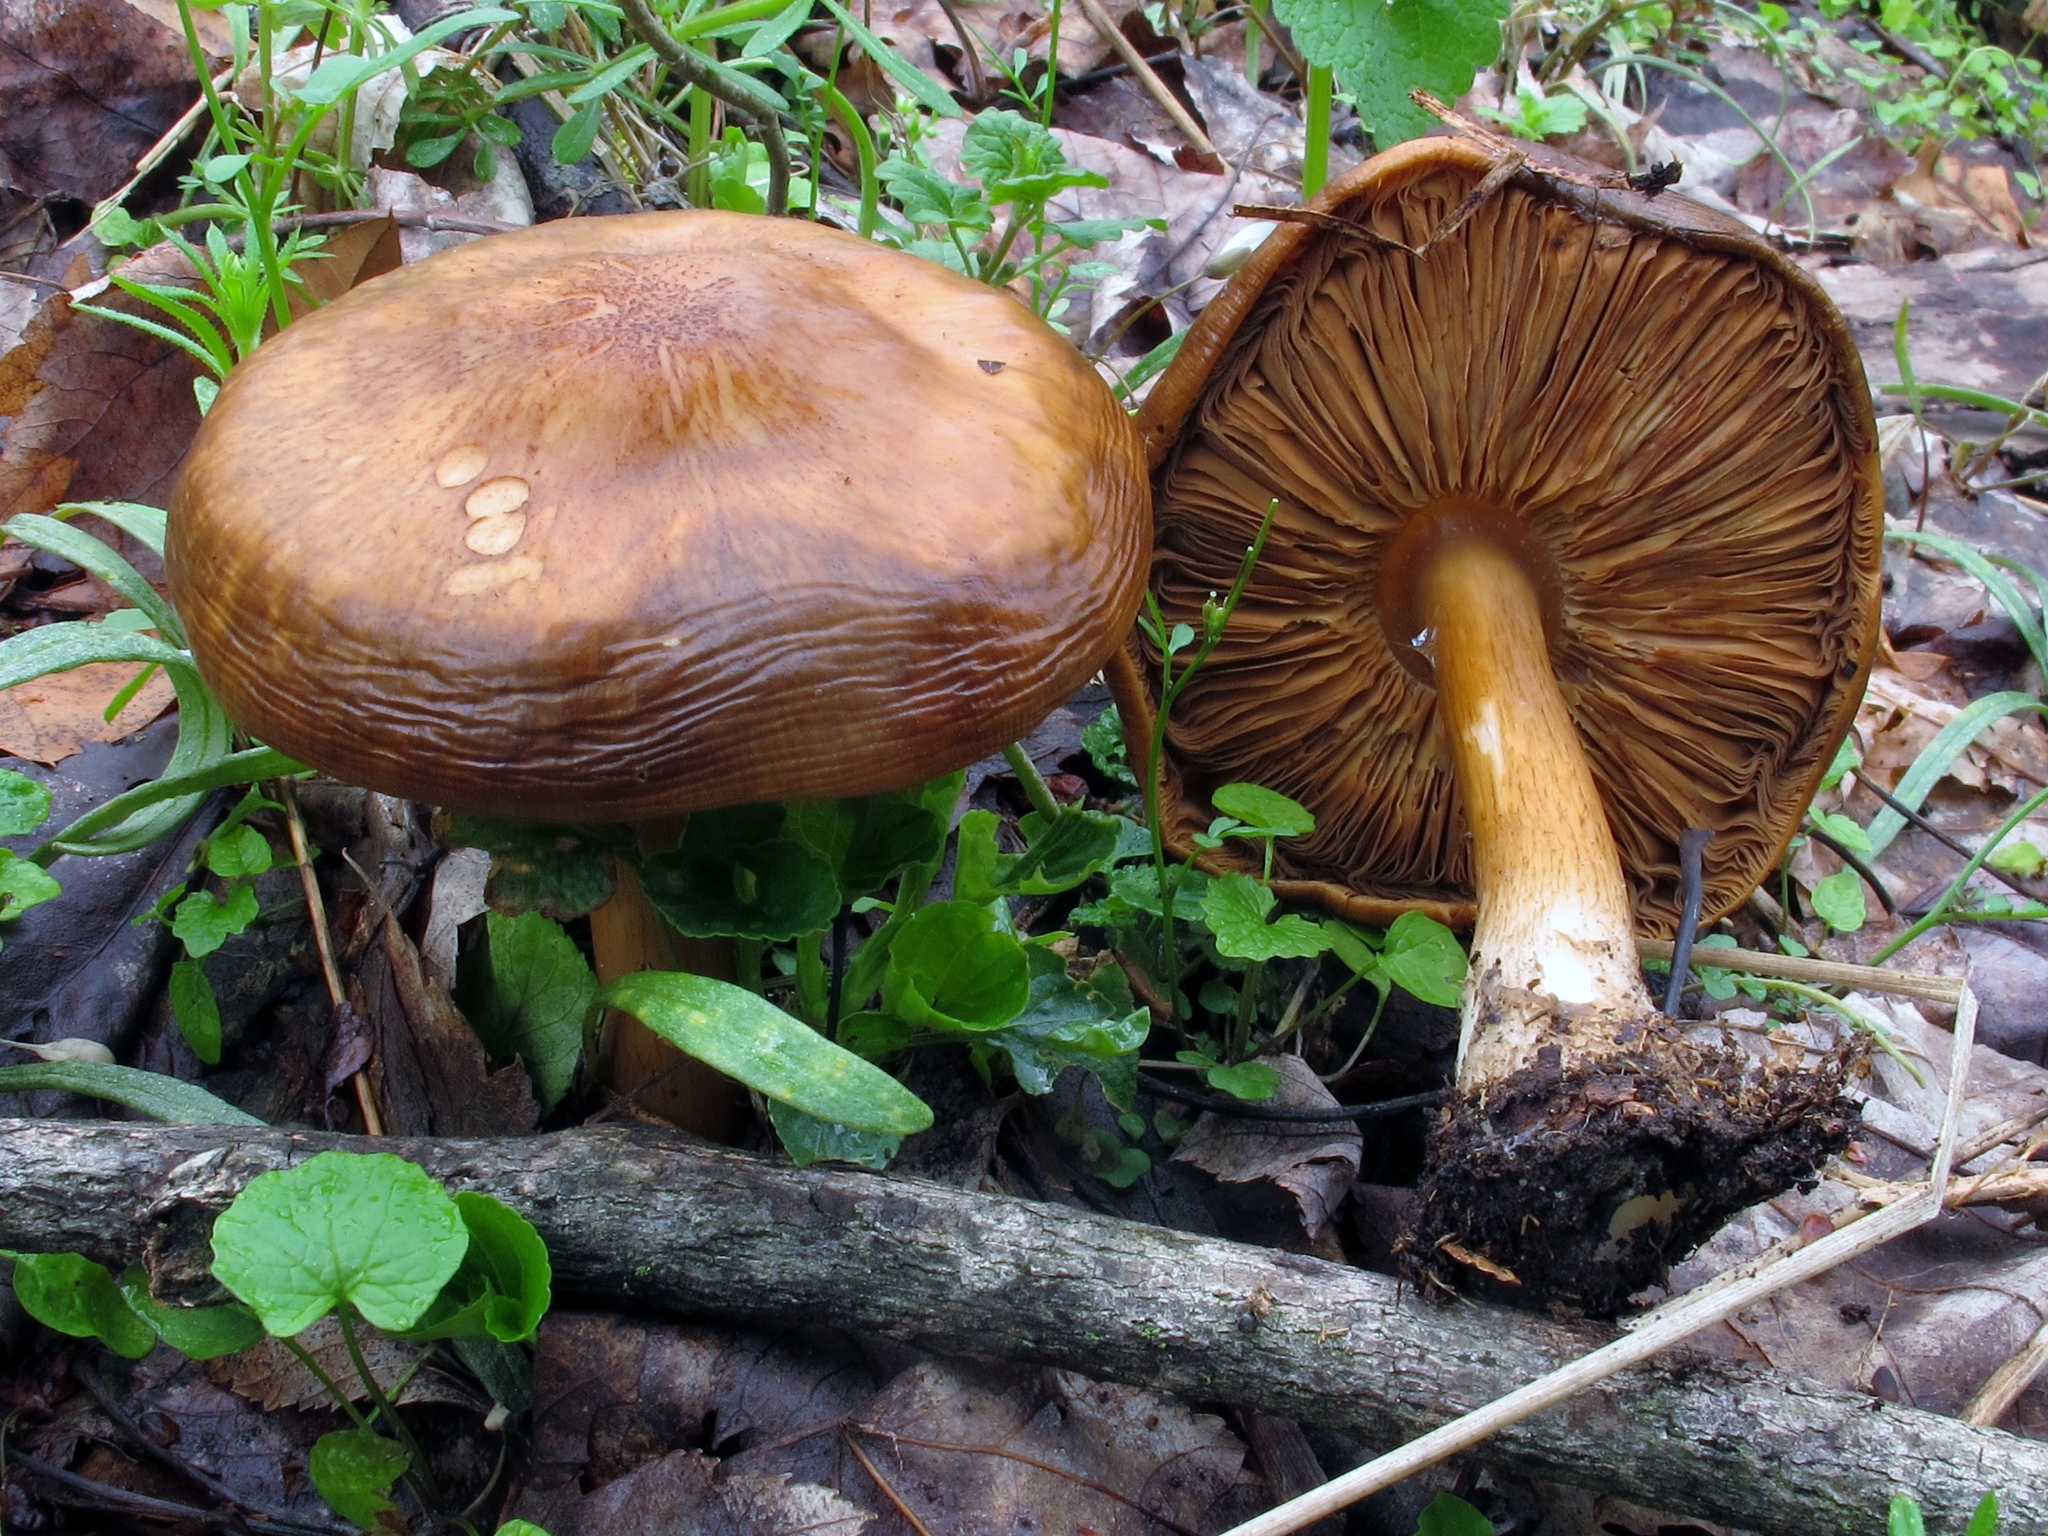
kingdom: Fungi
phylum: Basidiomycota
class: Agaricomycetes
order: Agaricales
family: Pluteaceae
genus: Pluteus
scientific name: Pluteus cervinus
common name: Deer shield
